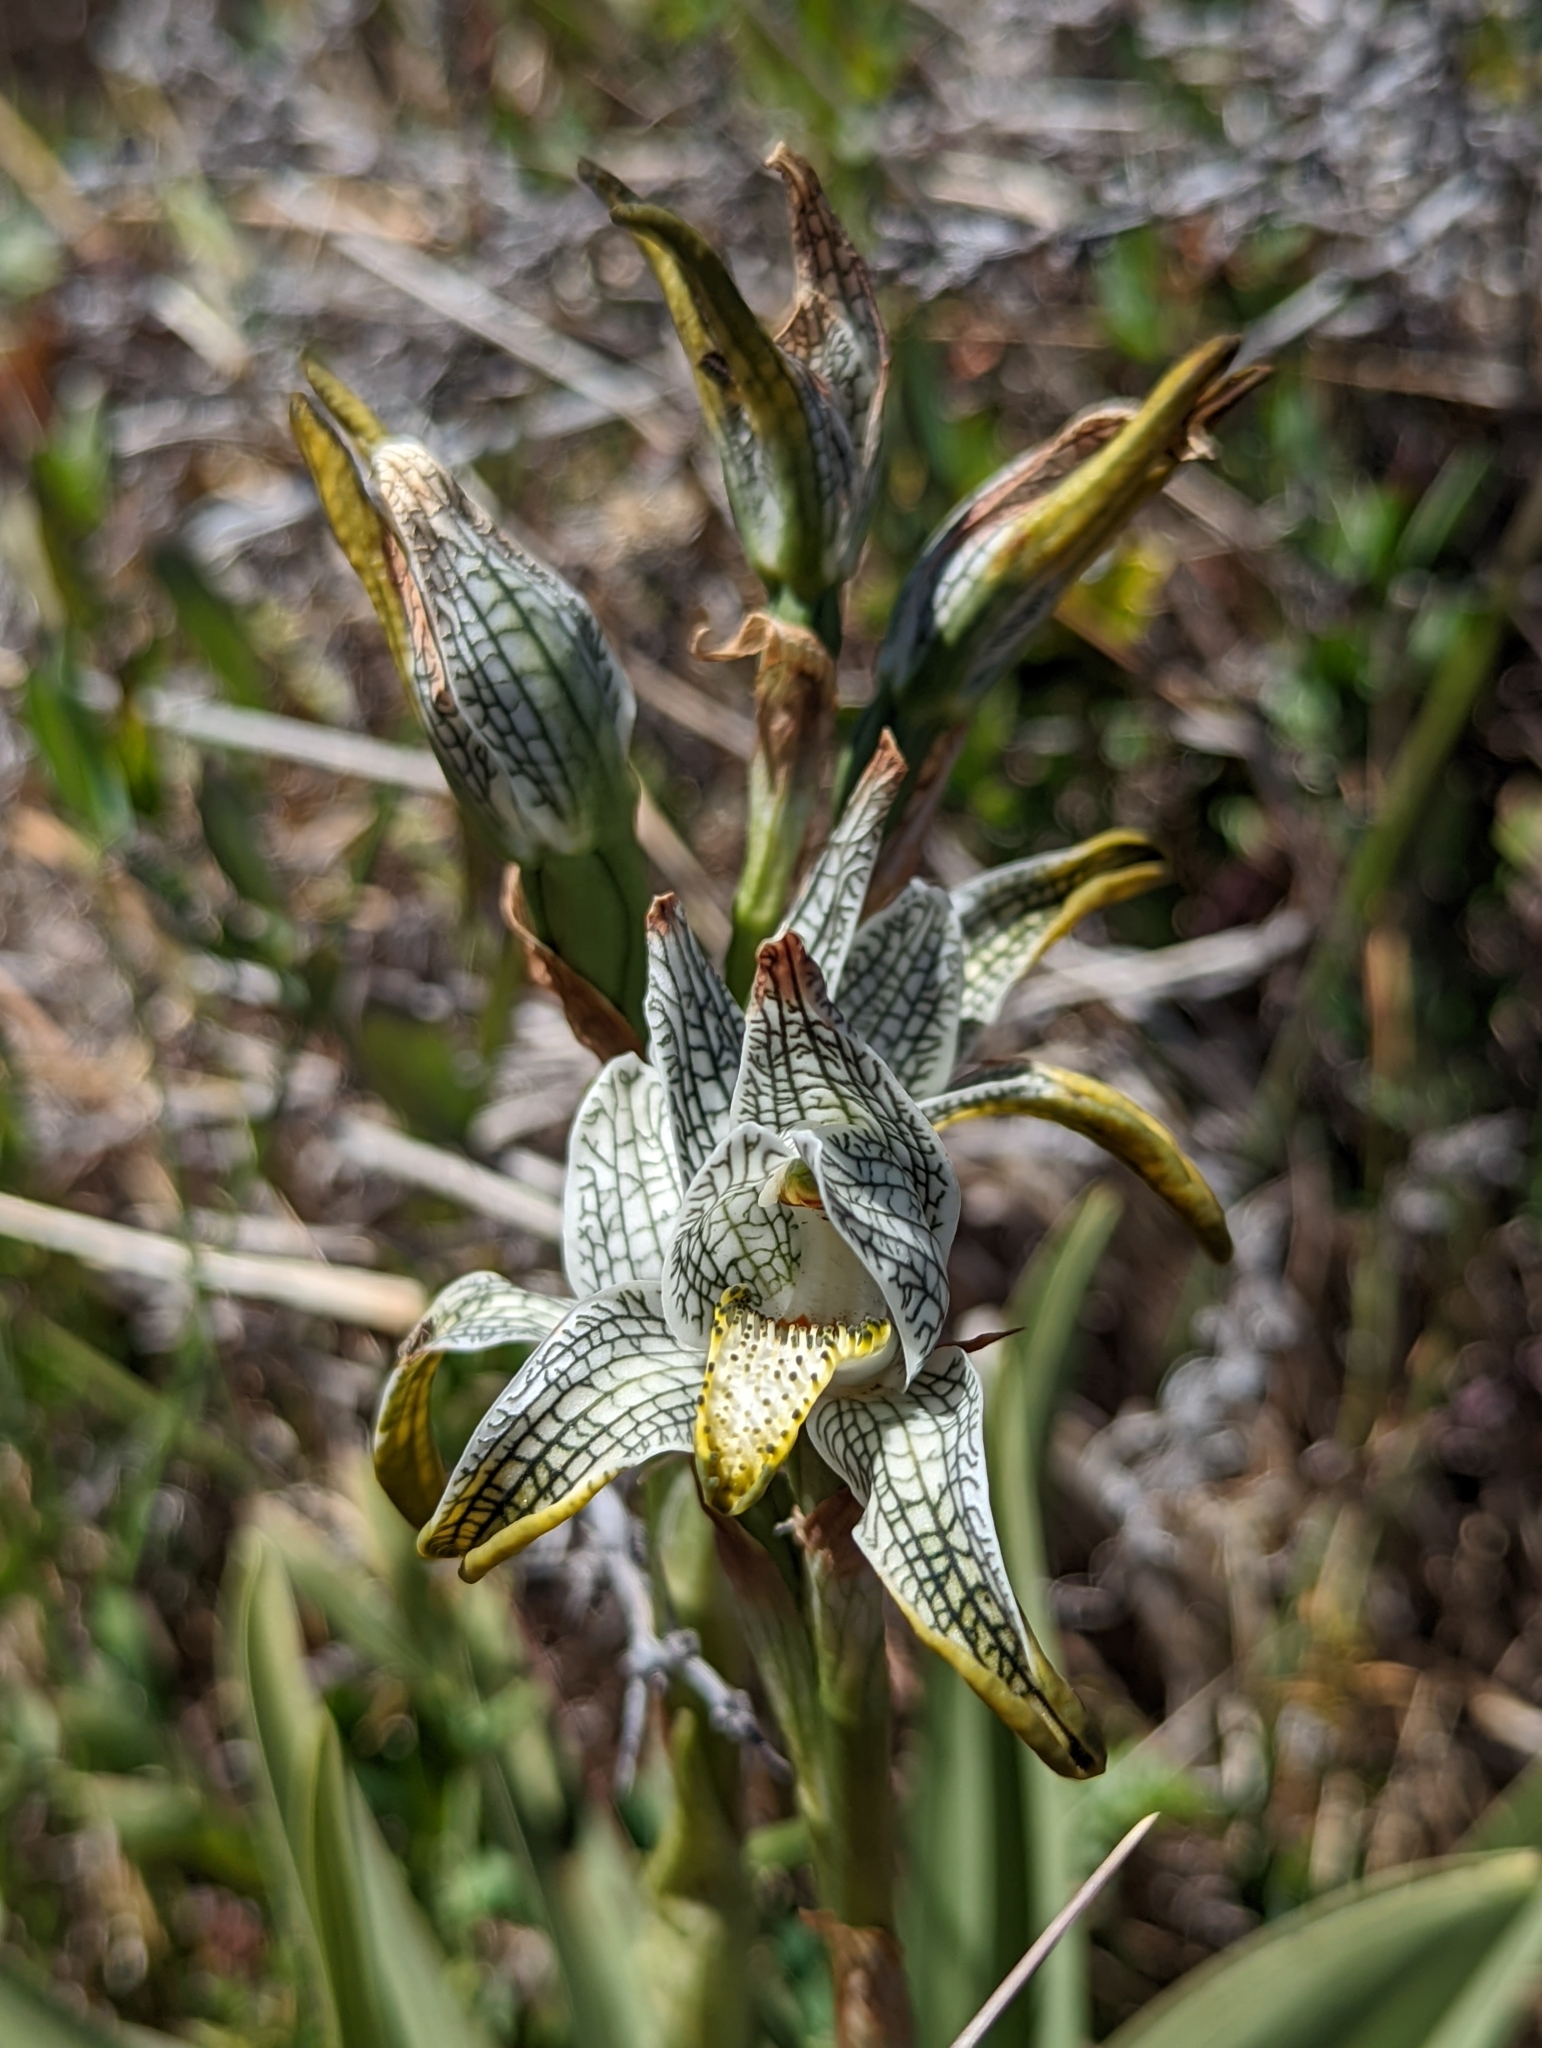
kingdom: Plantae
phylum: Tracheophyta
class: Liliopsida
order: Asparagales
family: Orchidaceae
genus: Chloraea
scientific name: Chloraea magellanica
